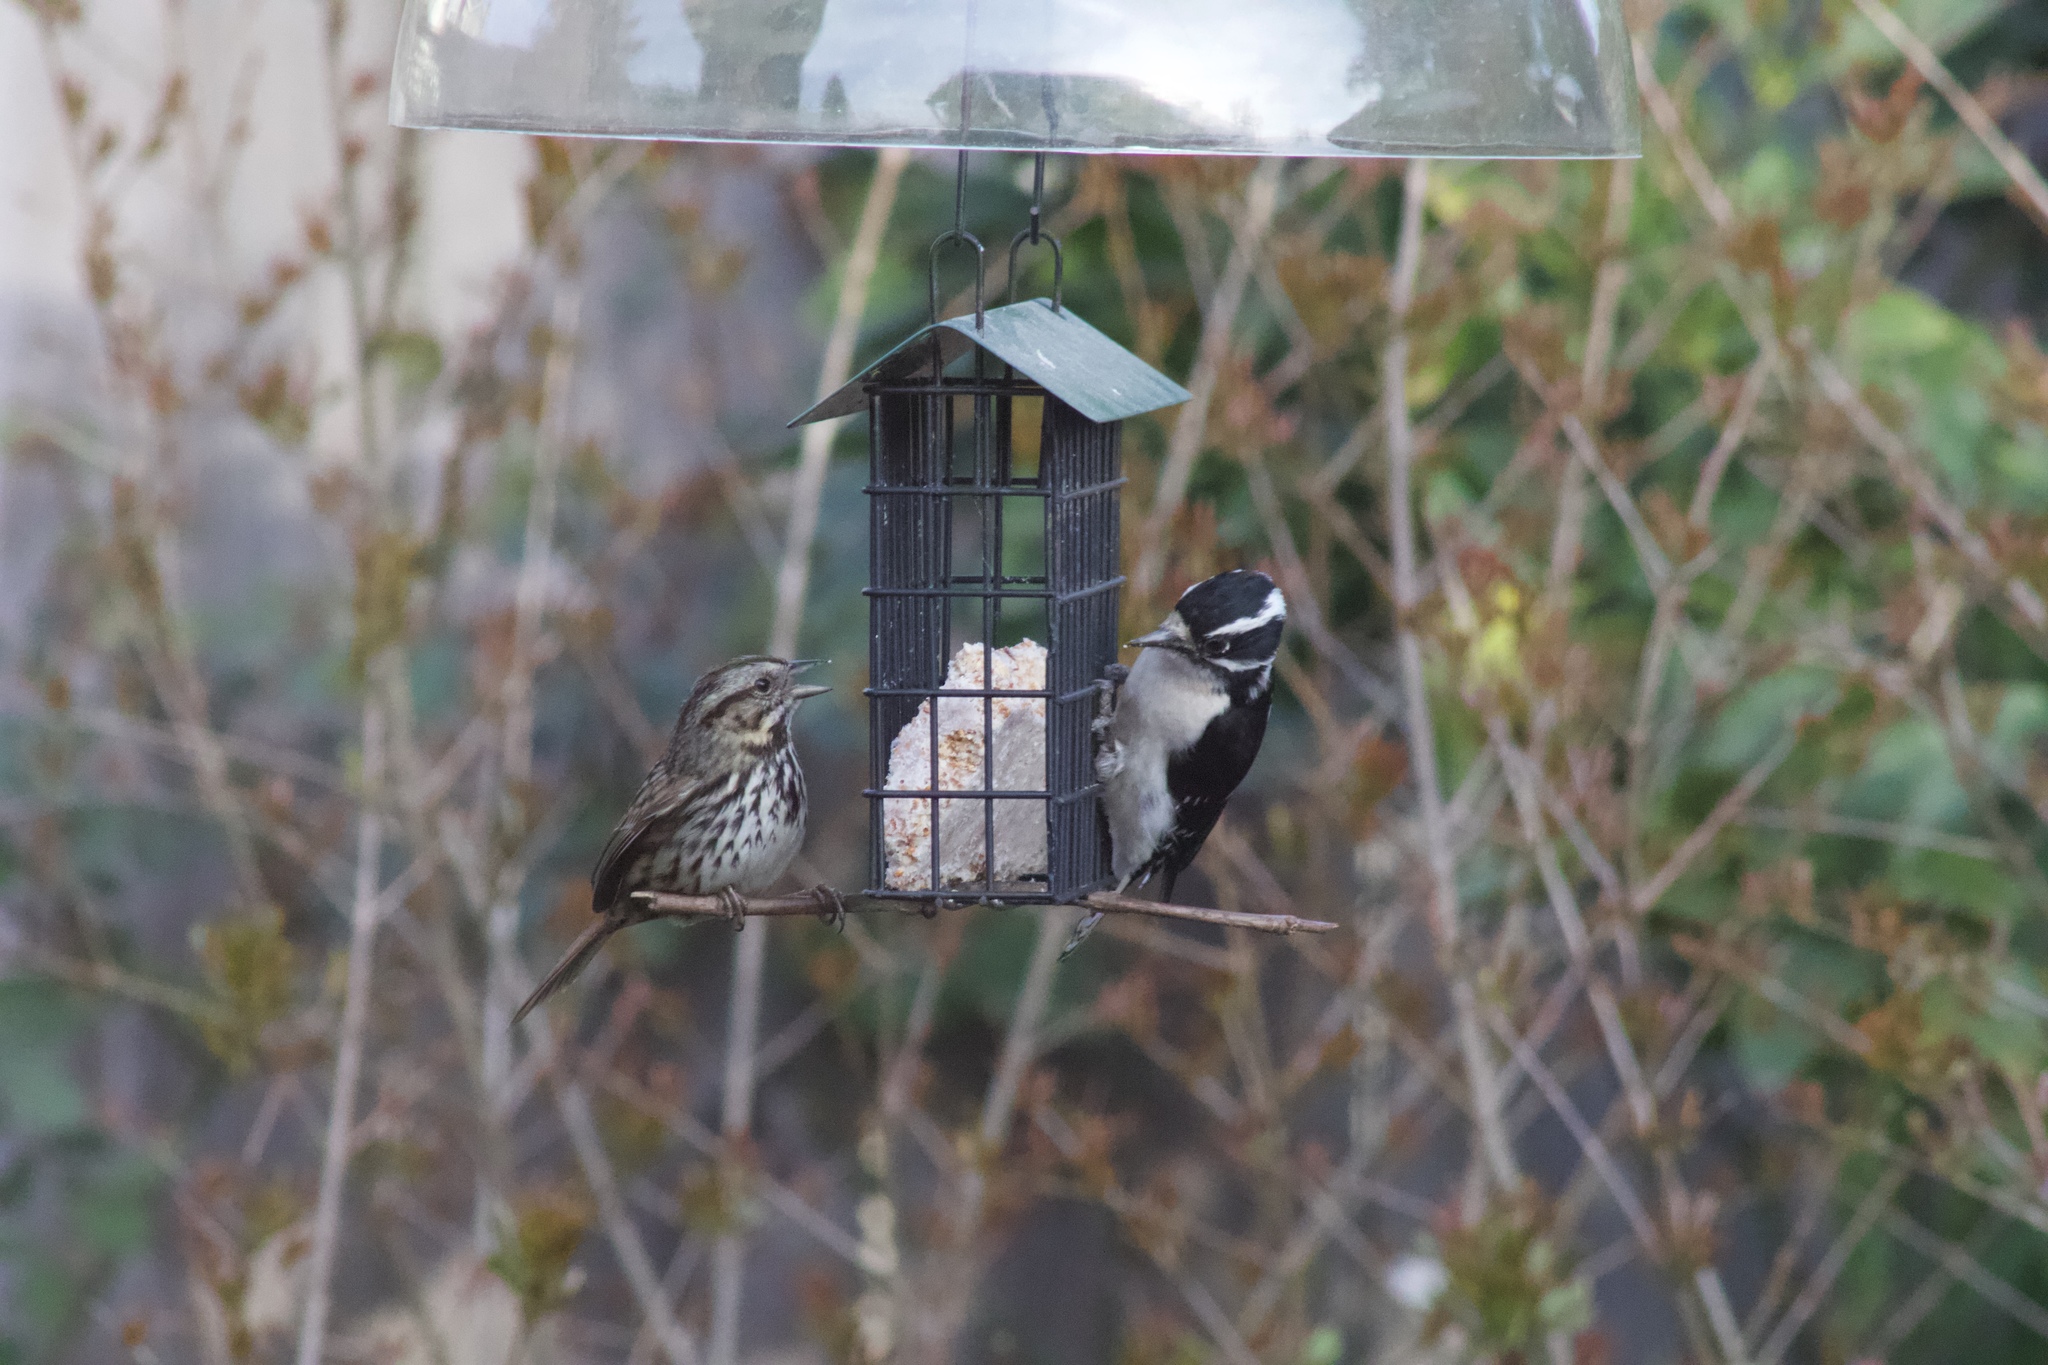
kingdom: Animalia
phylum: Chordata
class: Aves
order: Passeriformes
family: Passerellidae
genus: Melospiza
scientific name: Melospiza melodia
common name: Song sparrow
